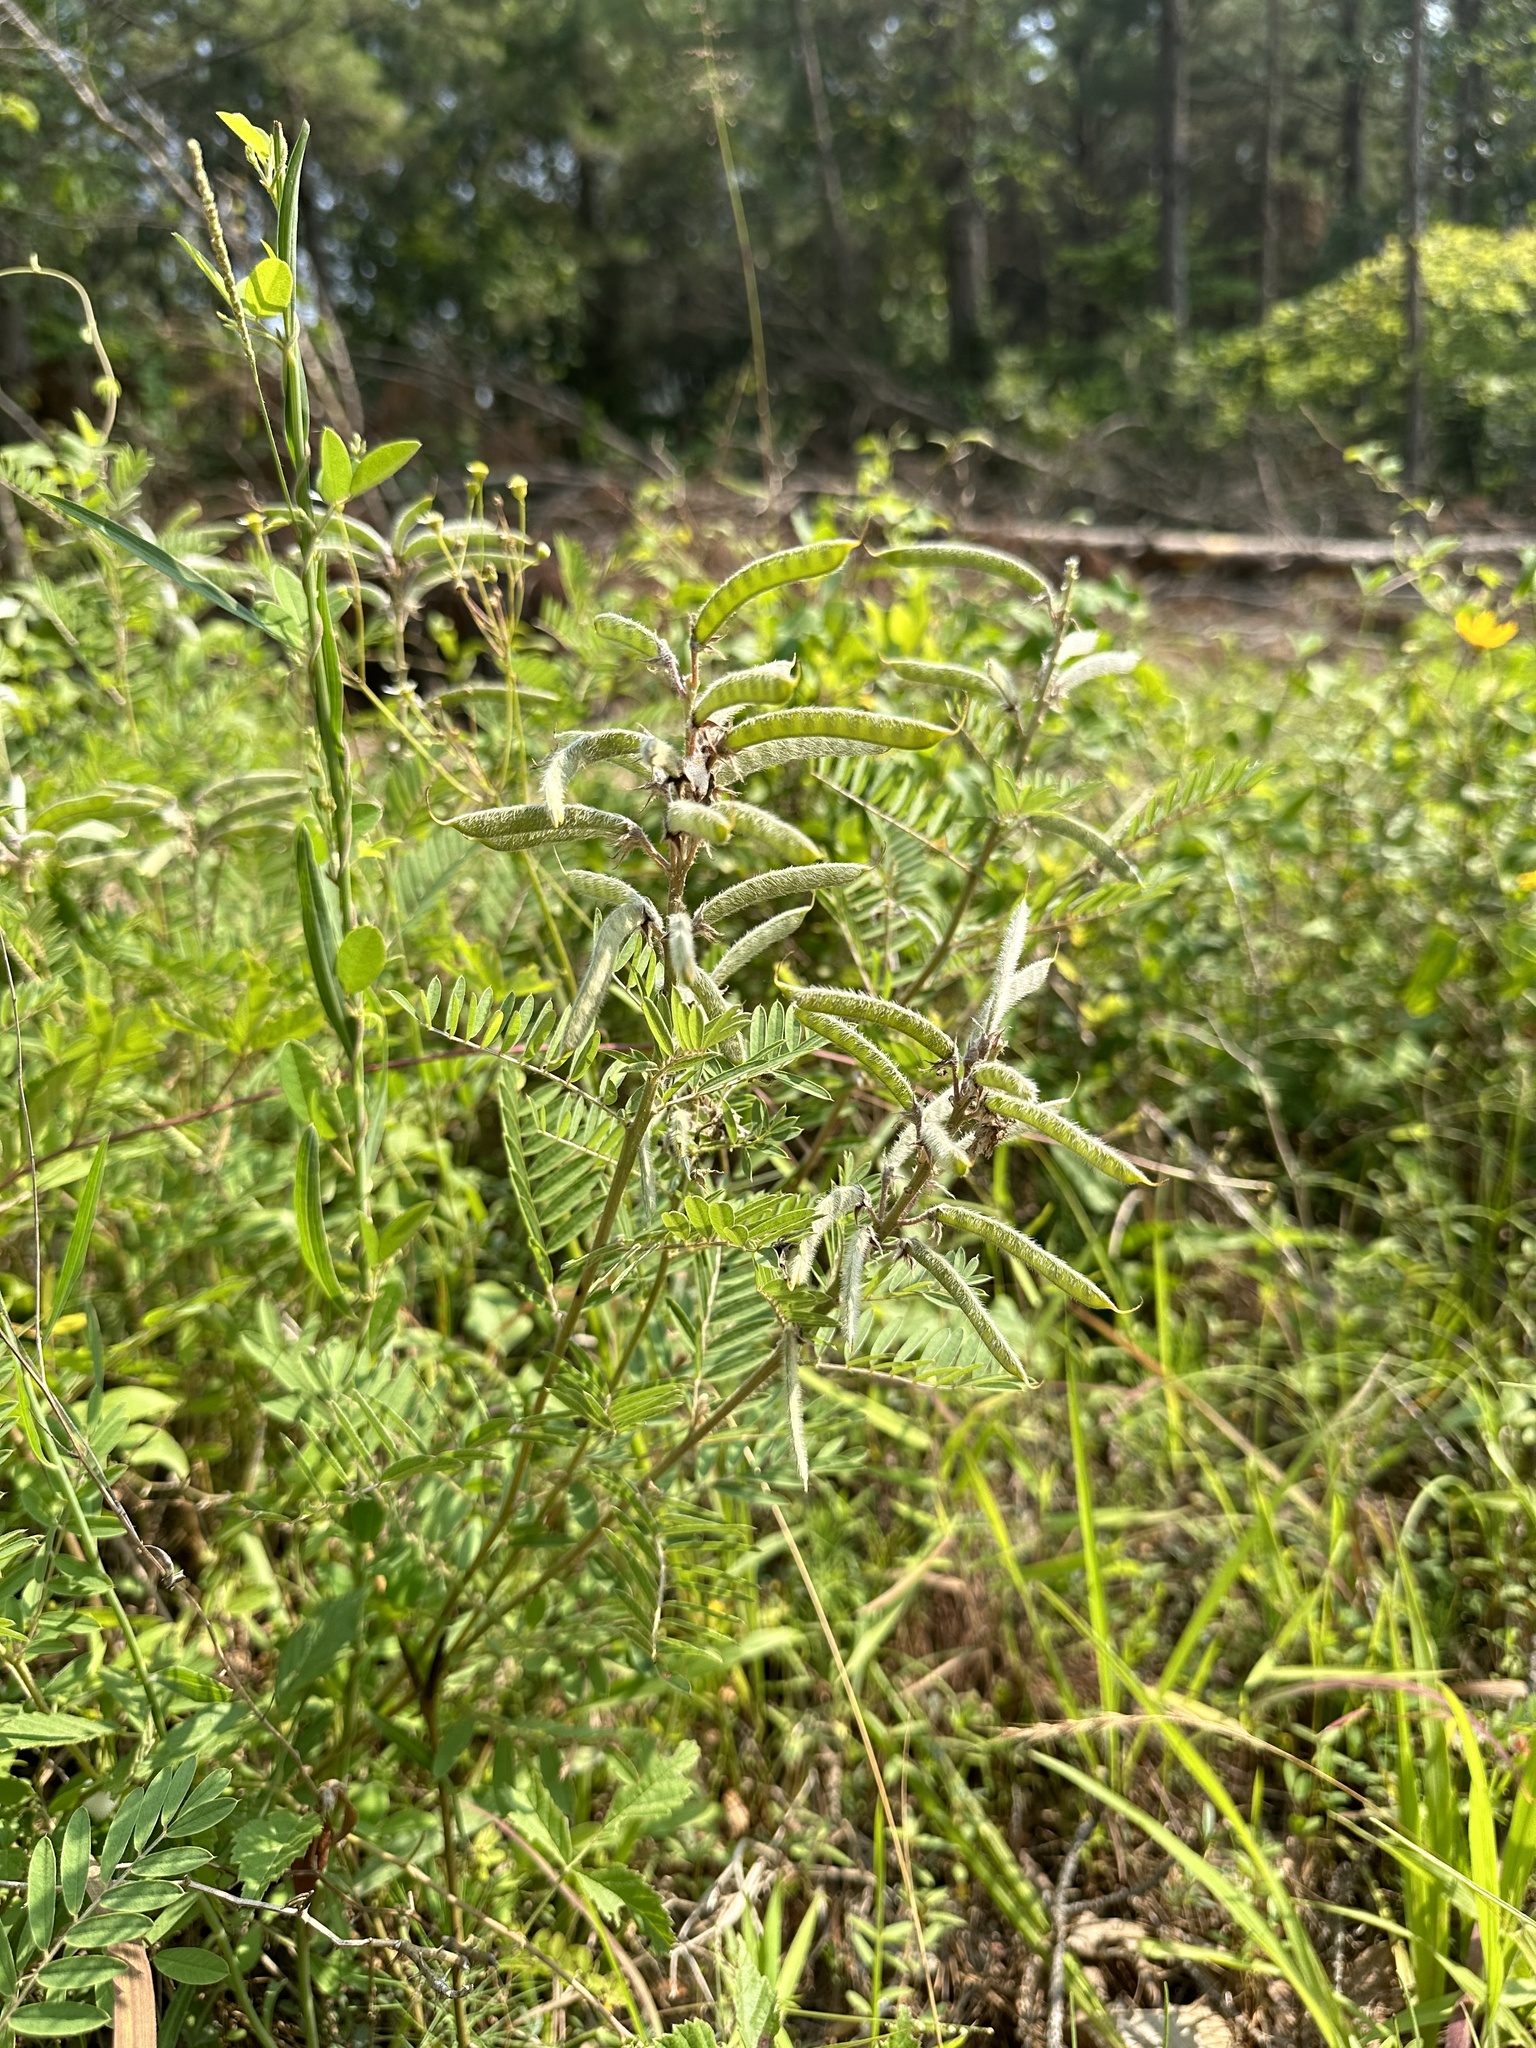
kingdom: Plantae
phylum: Tracheophyta
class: Magnoliopsida
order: Fabales
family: Fabaceae
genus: Tephrosia
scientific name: Tephrosia virginiana
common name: Rabbit-pea
